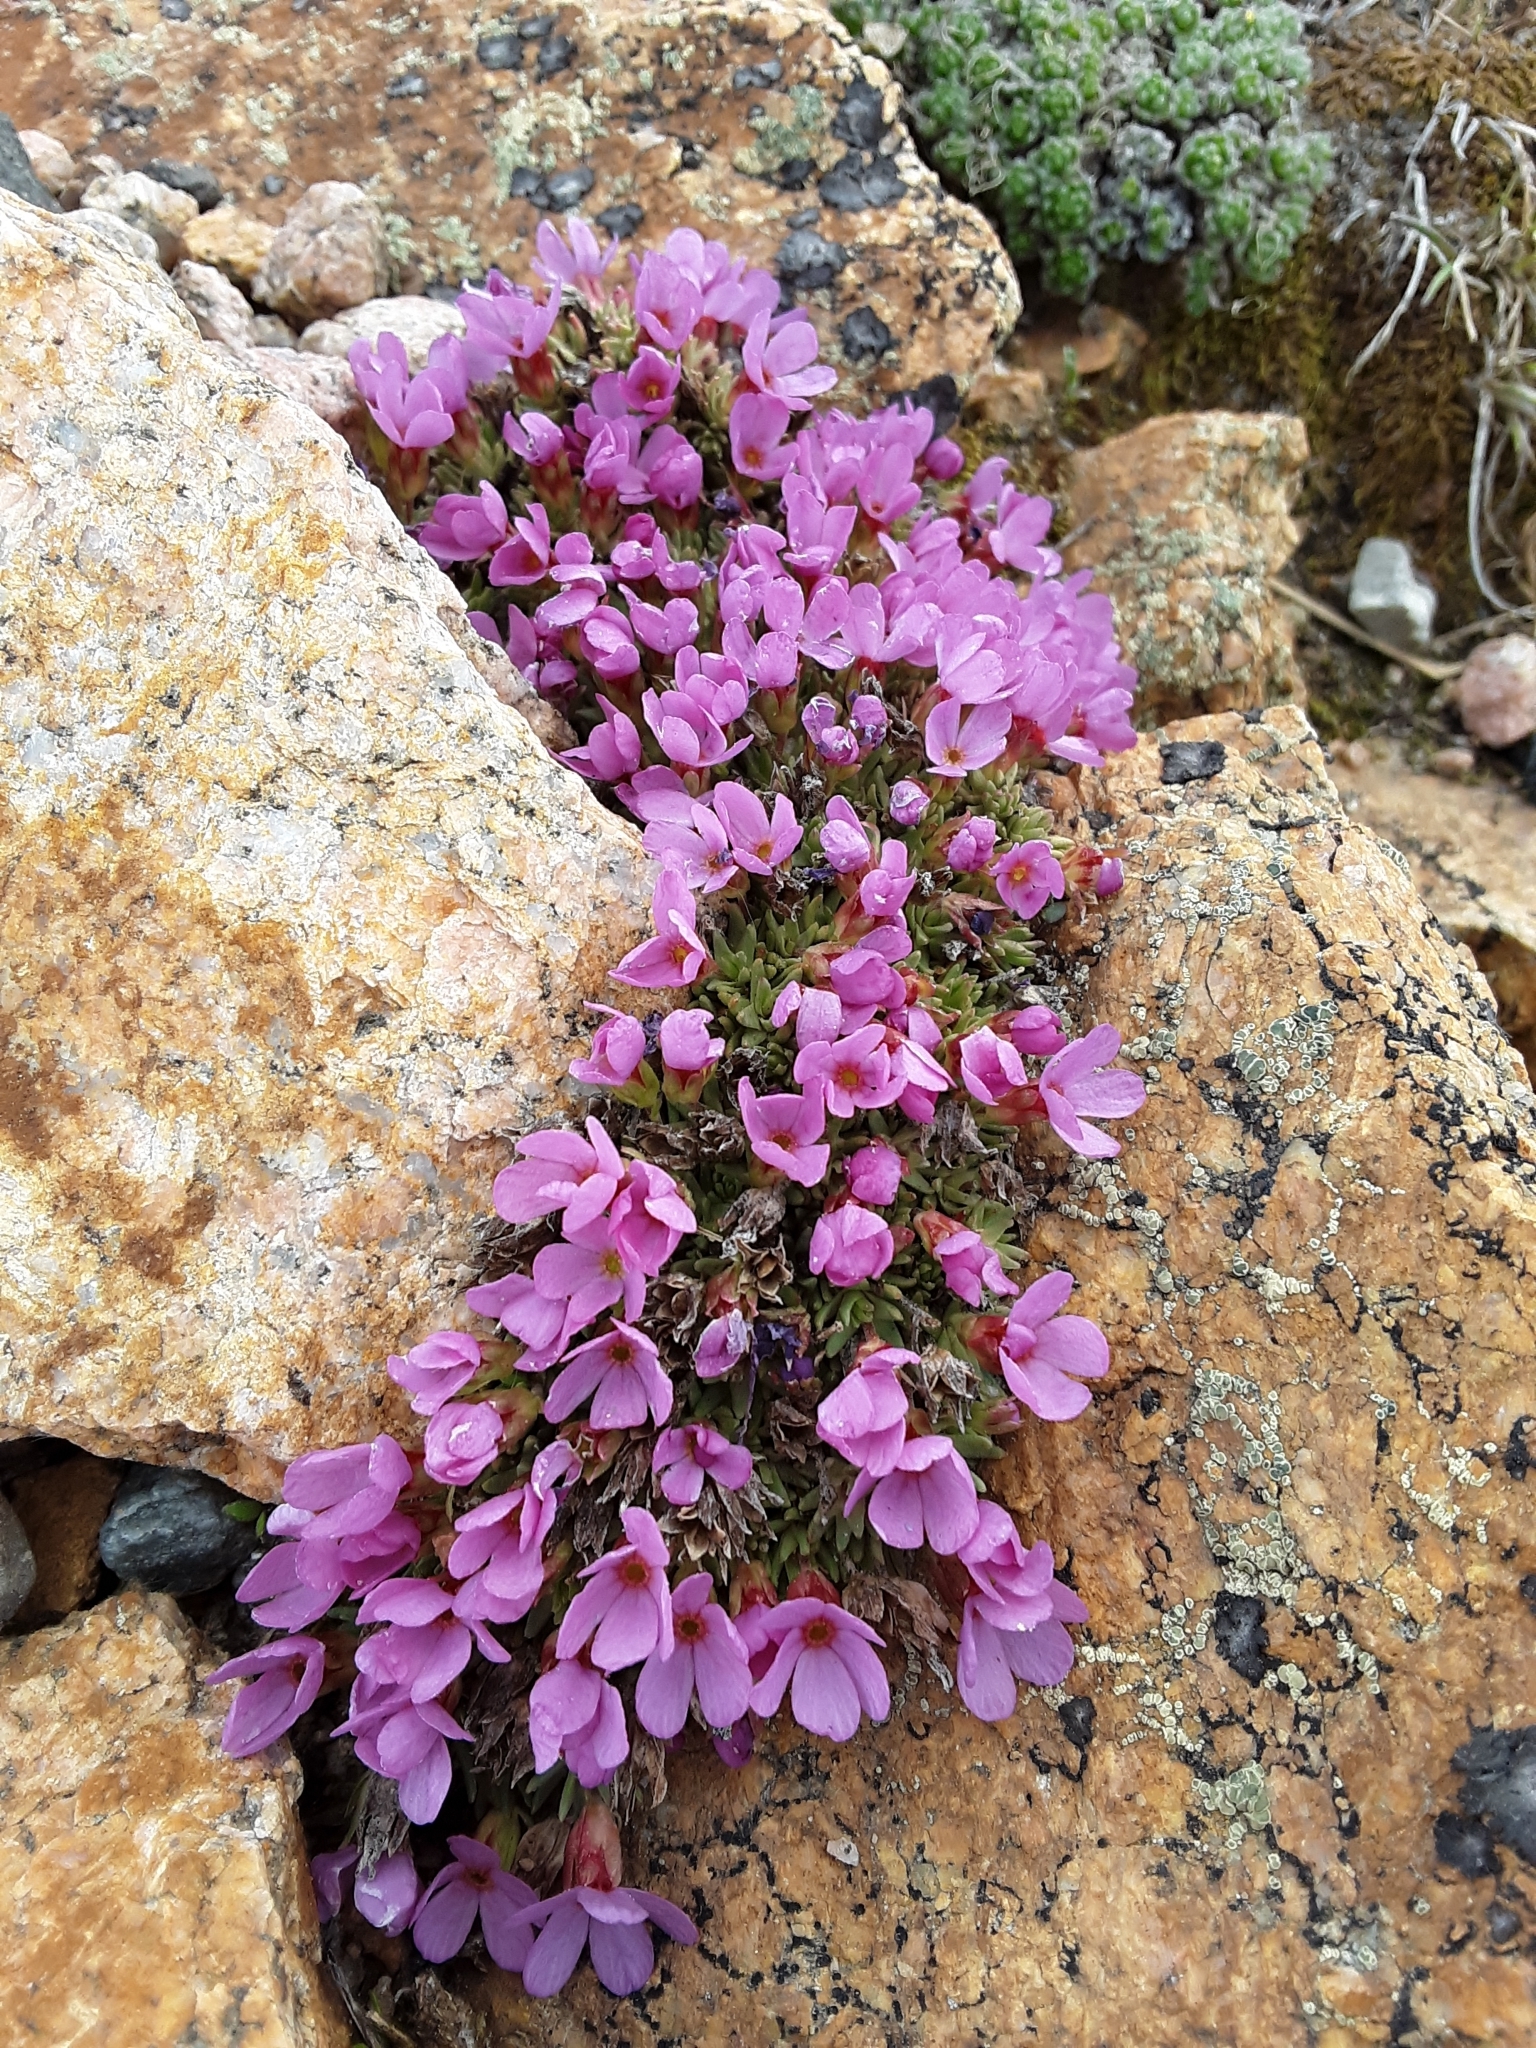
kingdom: Plantae
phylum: Tracheophyta
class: Magnoliopsida
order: Ericales
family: Primulaceae
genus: Androsace
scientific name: Androsace montana
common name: Rocky mountain dwarf-primrose
